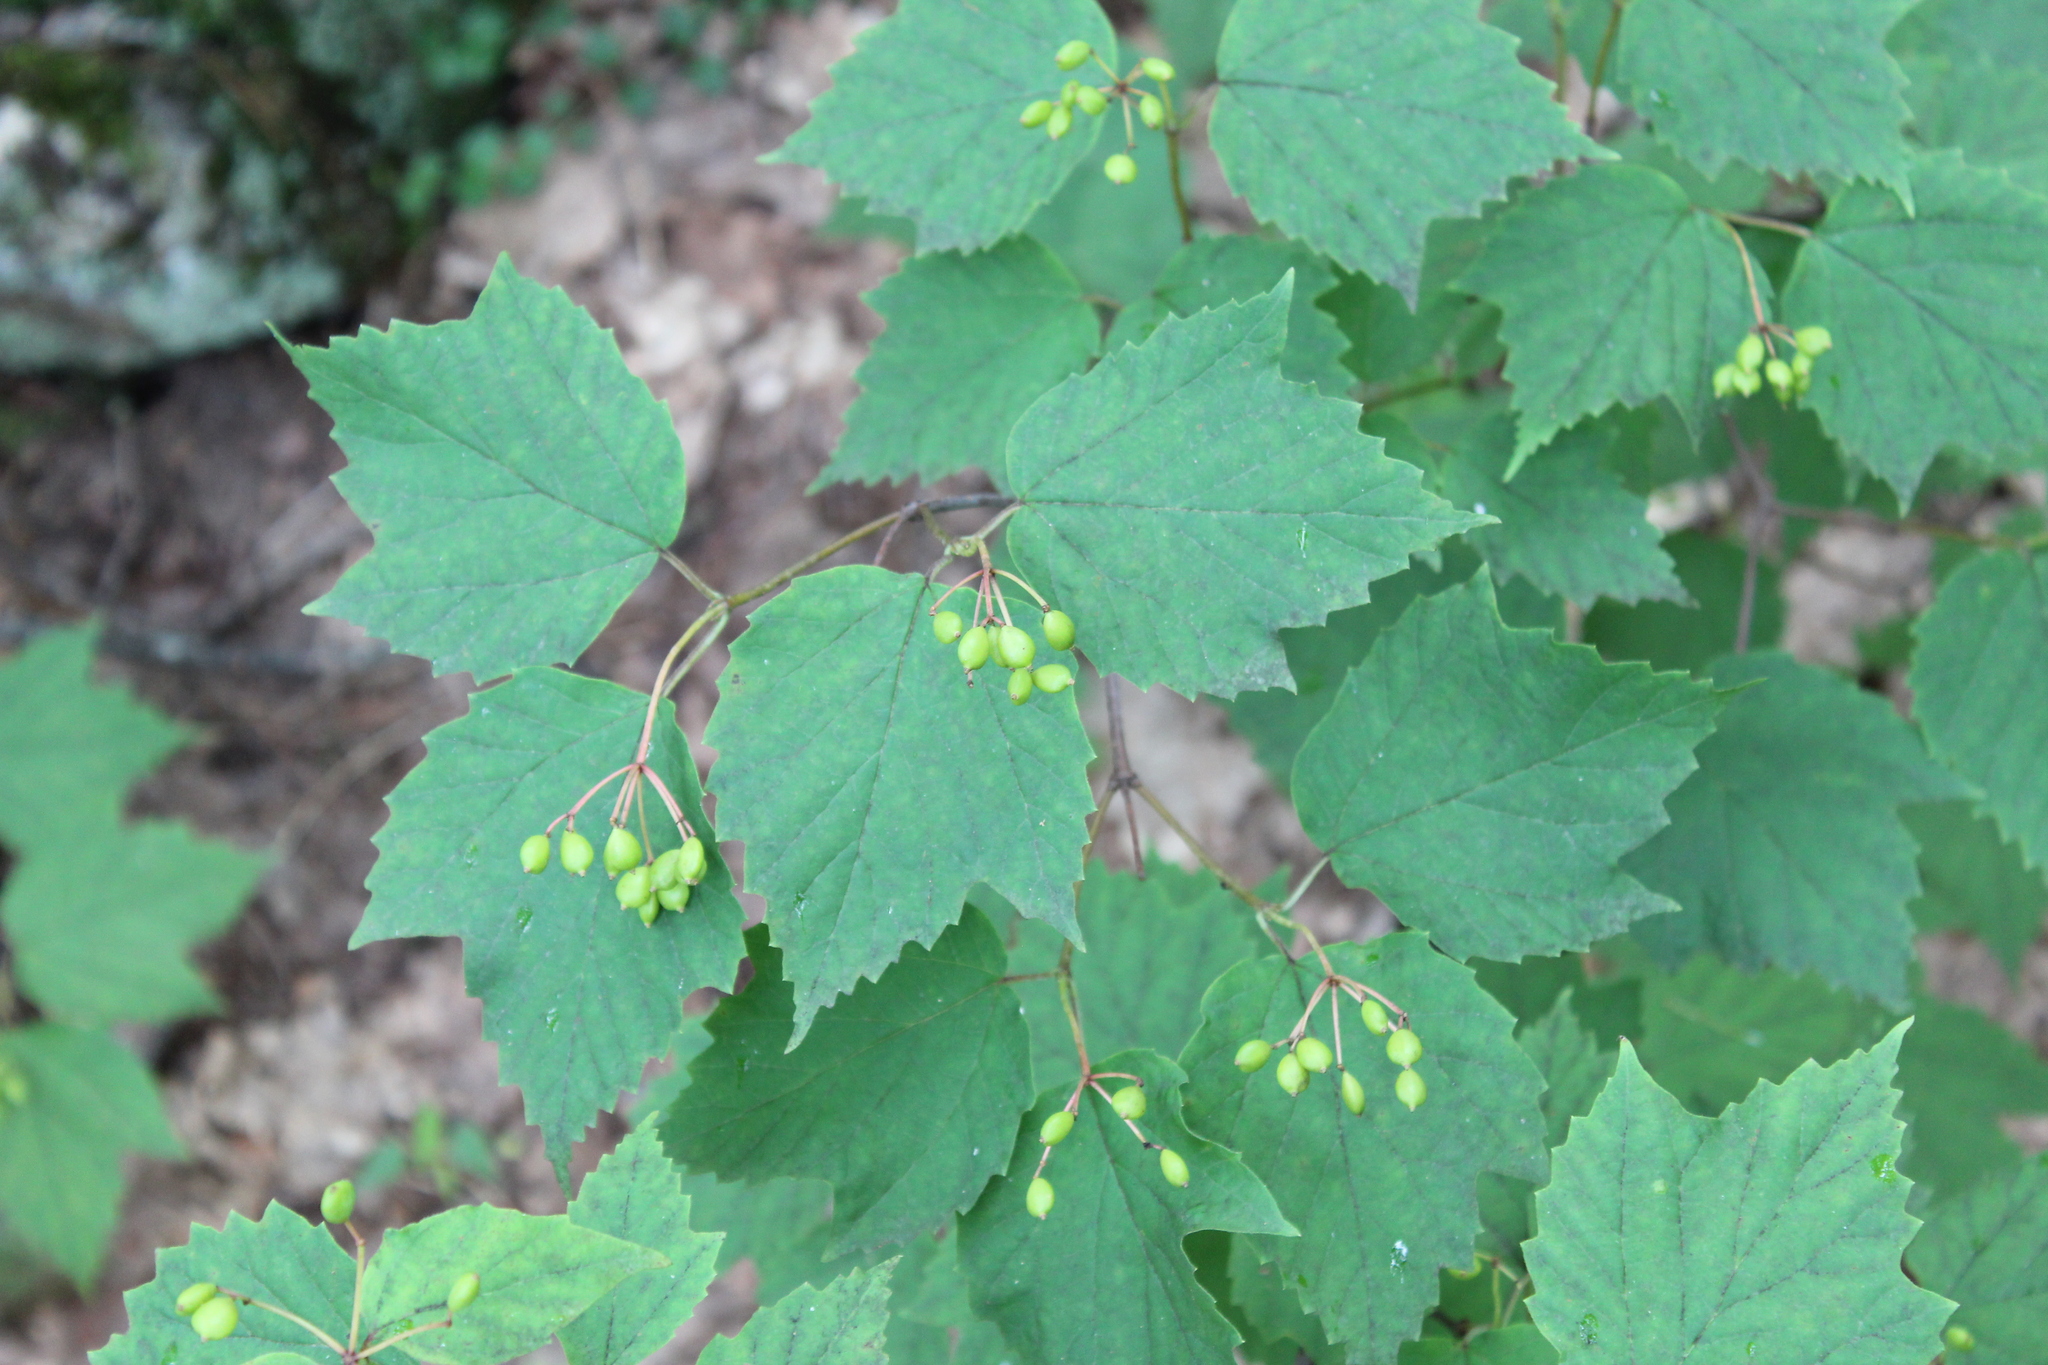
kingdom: Plantae
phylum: Tracheophyta
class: Magnoliopsida
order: Dipsacales
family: Viburnaceae
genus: Viburnum
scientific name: Viburnum acerifolium
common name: Dockmackie
